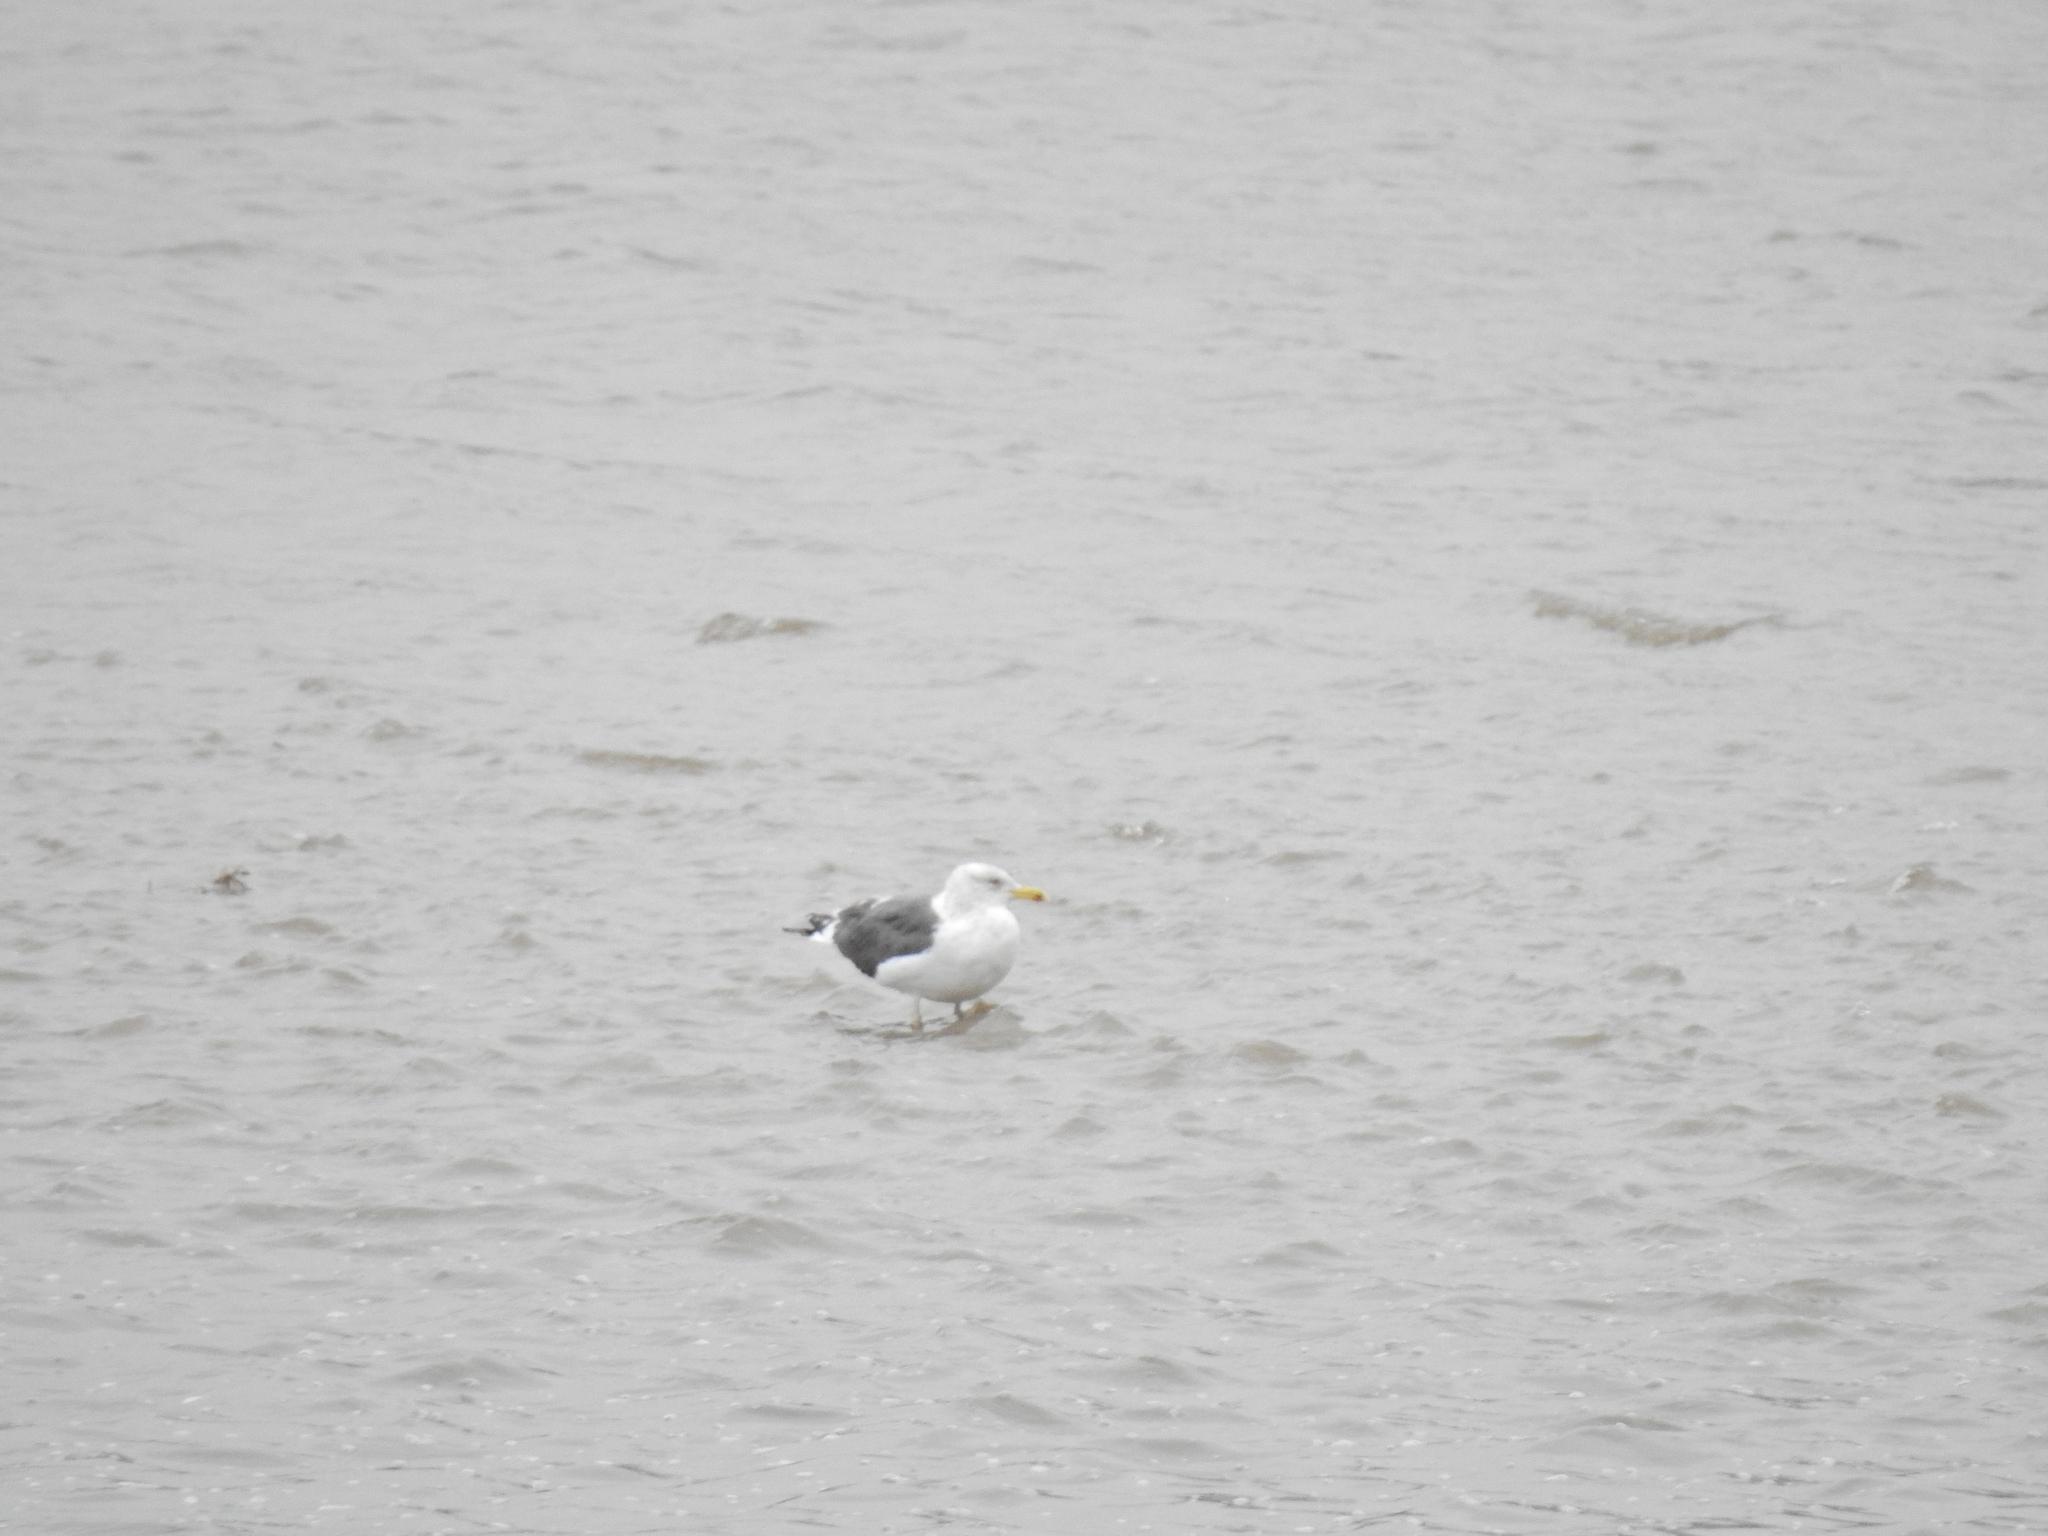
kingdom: Animalia
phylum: Chordata
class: Aves
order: Charadriiformes
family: Laridae
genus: Larus
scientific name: Larus fuscus
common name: Lesser black-backed gull
